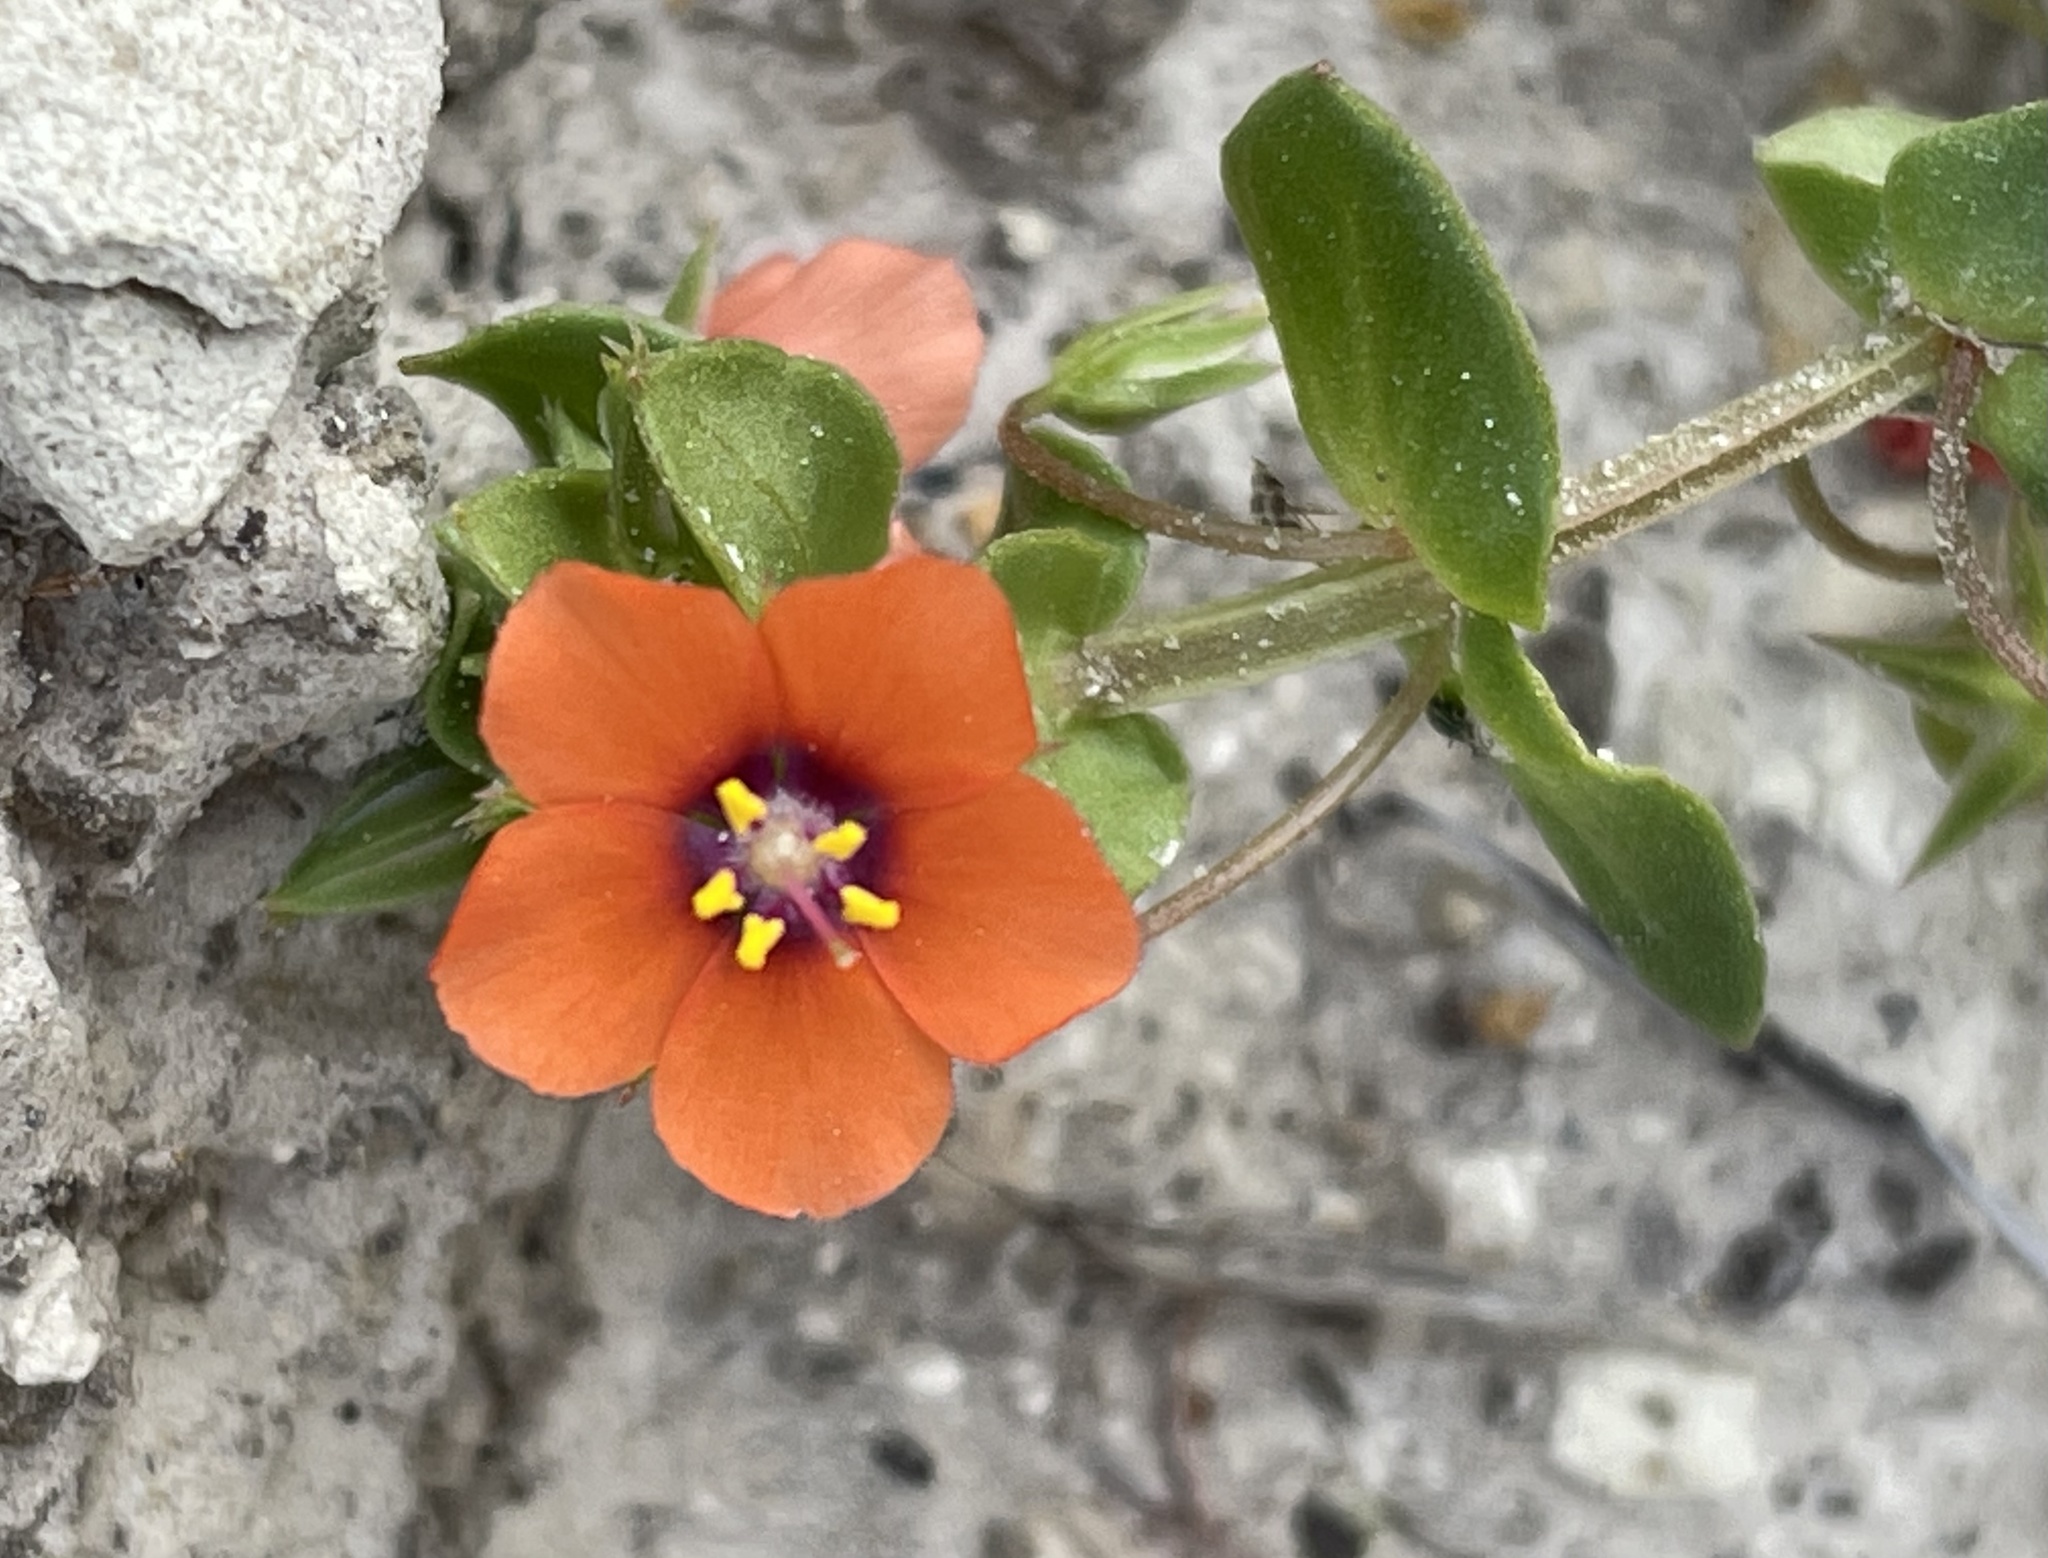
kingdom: Plantae
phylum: Tracheophyta
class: Magnoliopsida
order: Ericales
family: Primulaceae
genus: Lysimachia
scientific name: Lysimachia arvensis
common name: Scarlet pimpernel
